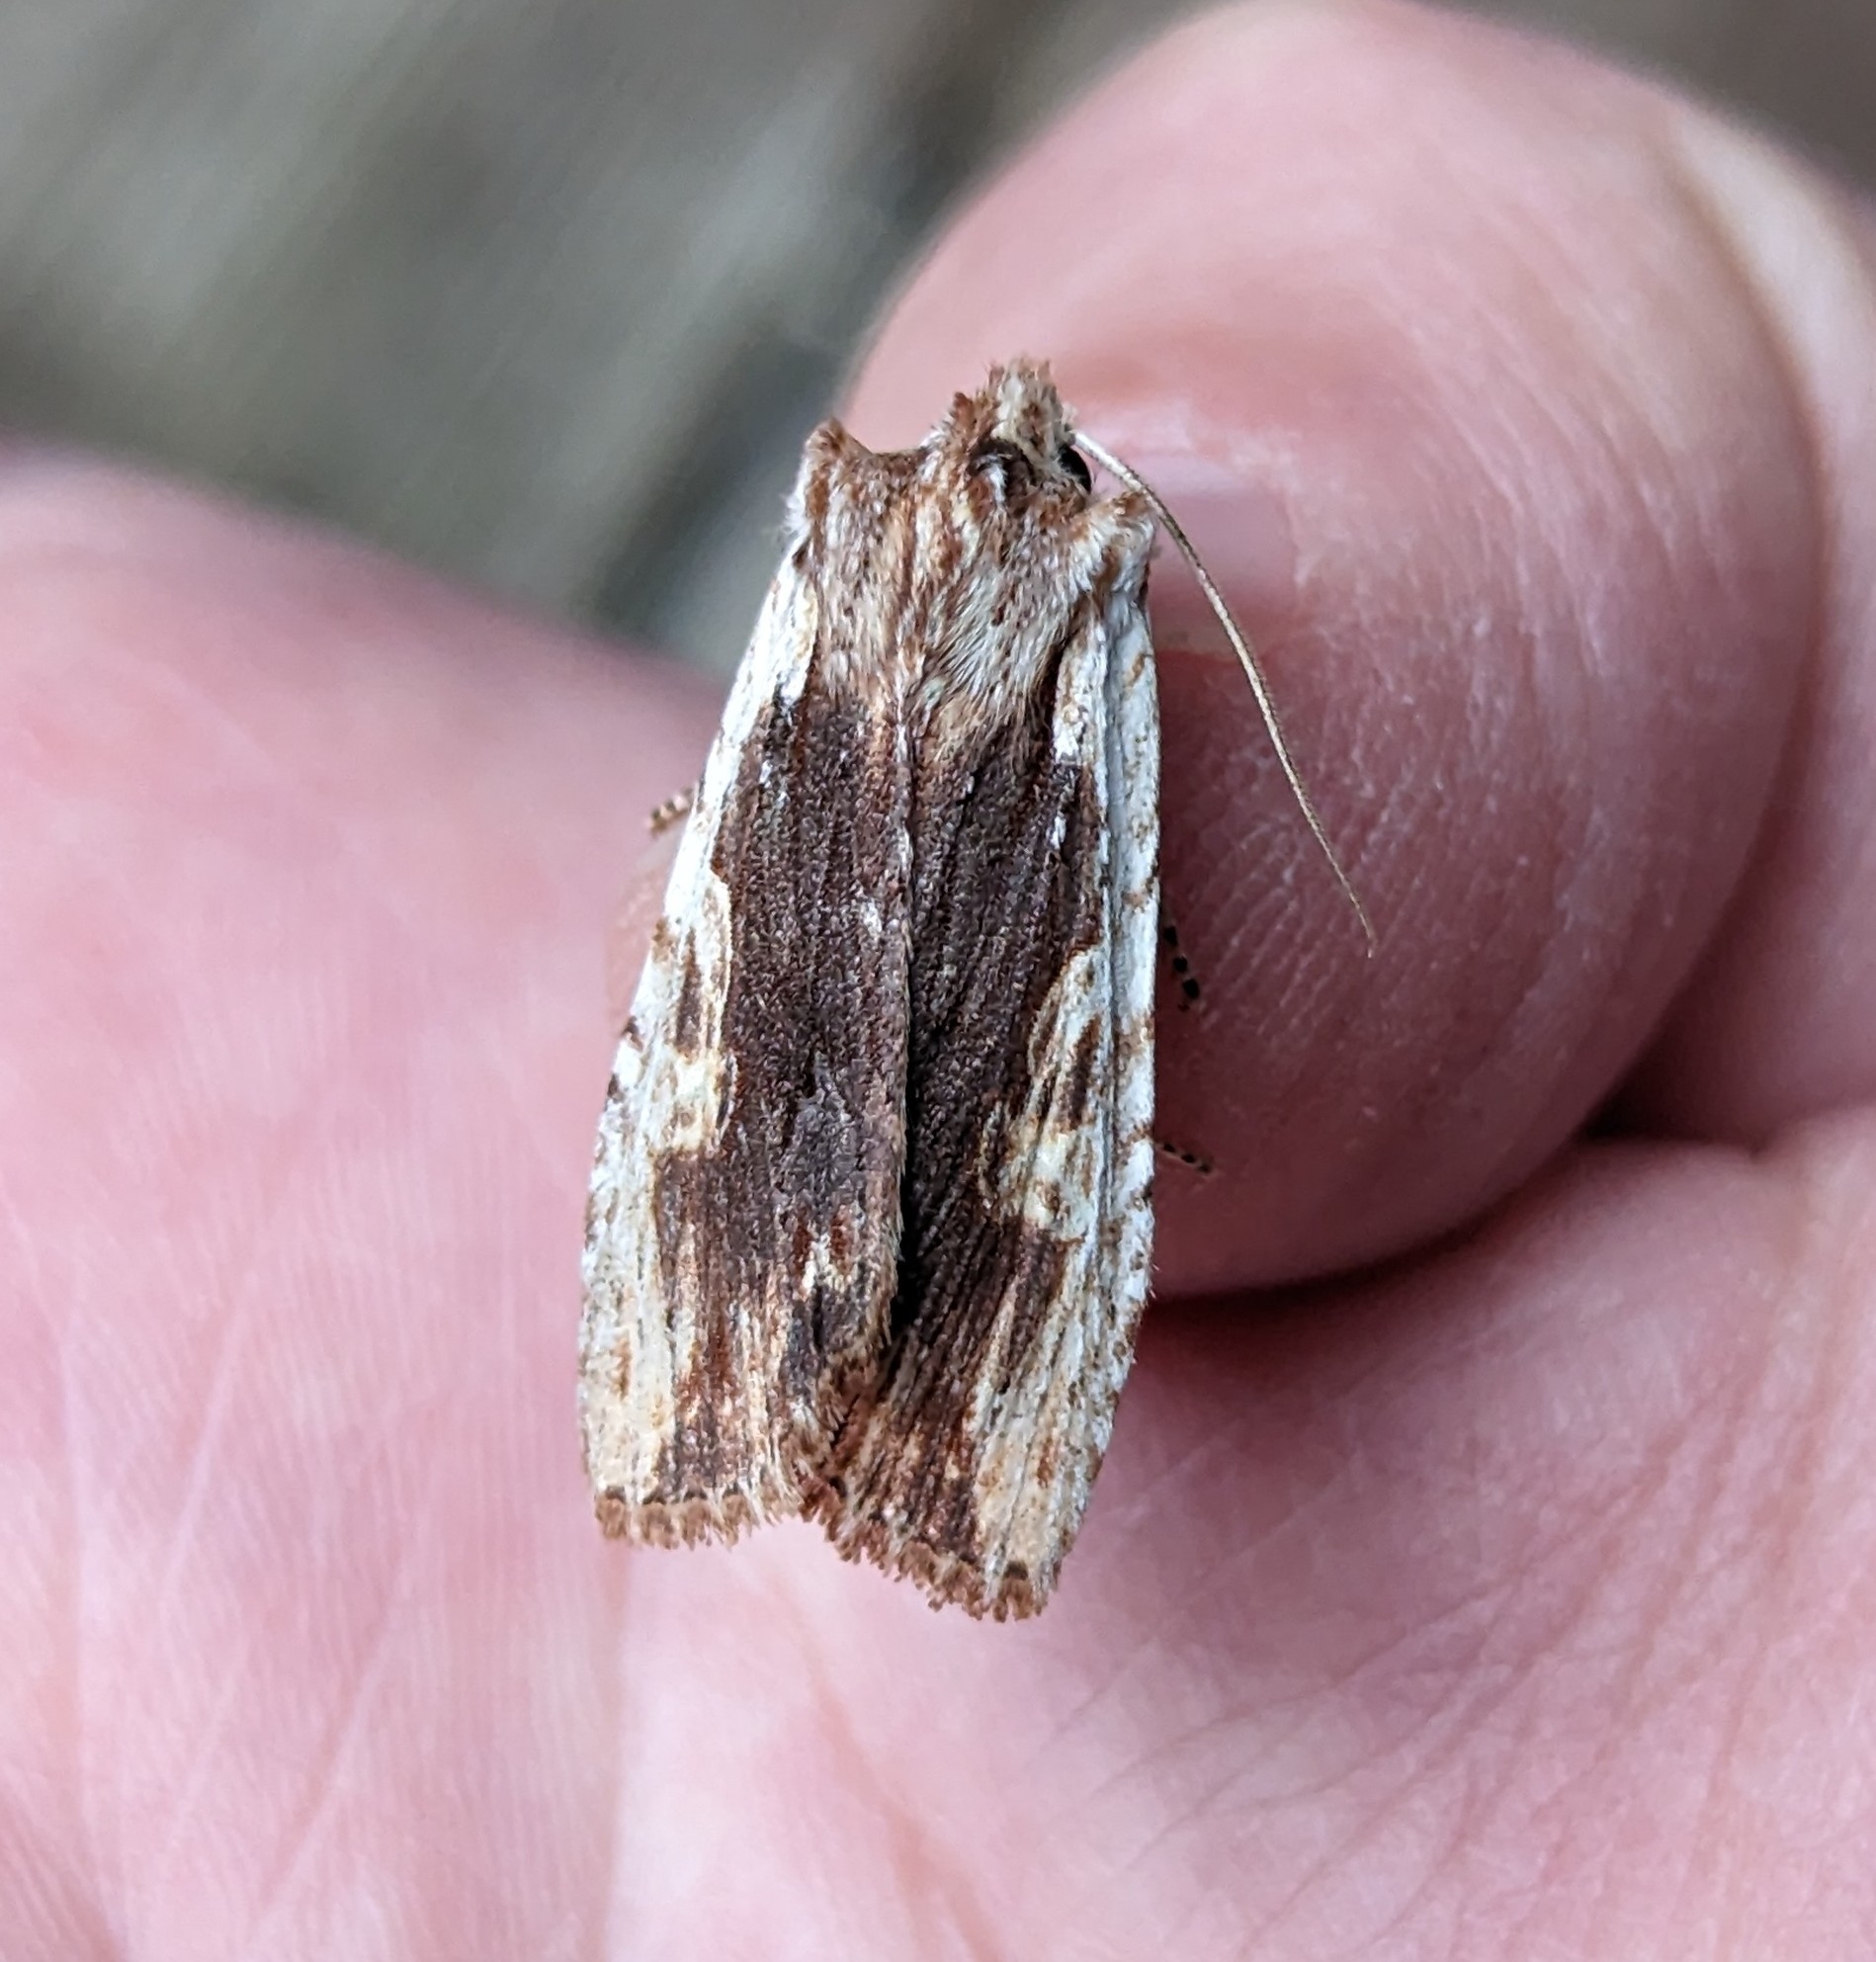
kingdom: Animalia
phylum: Arthropoda
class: Insecta
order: Lepidoptera
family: Noctuidae
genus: Lithophane
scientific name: Lithophane petulca
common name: Wanton pinion
